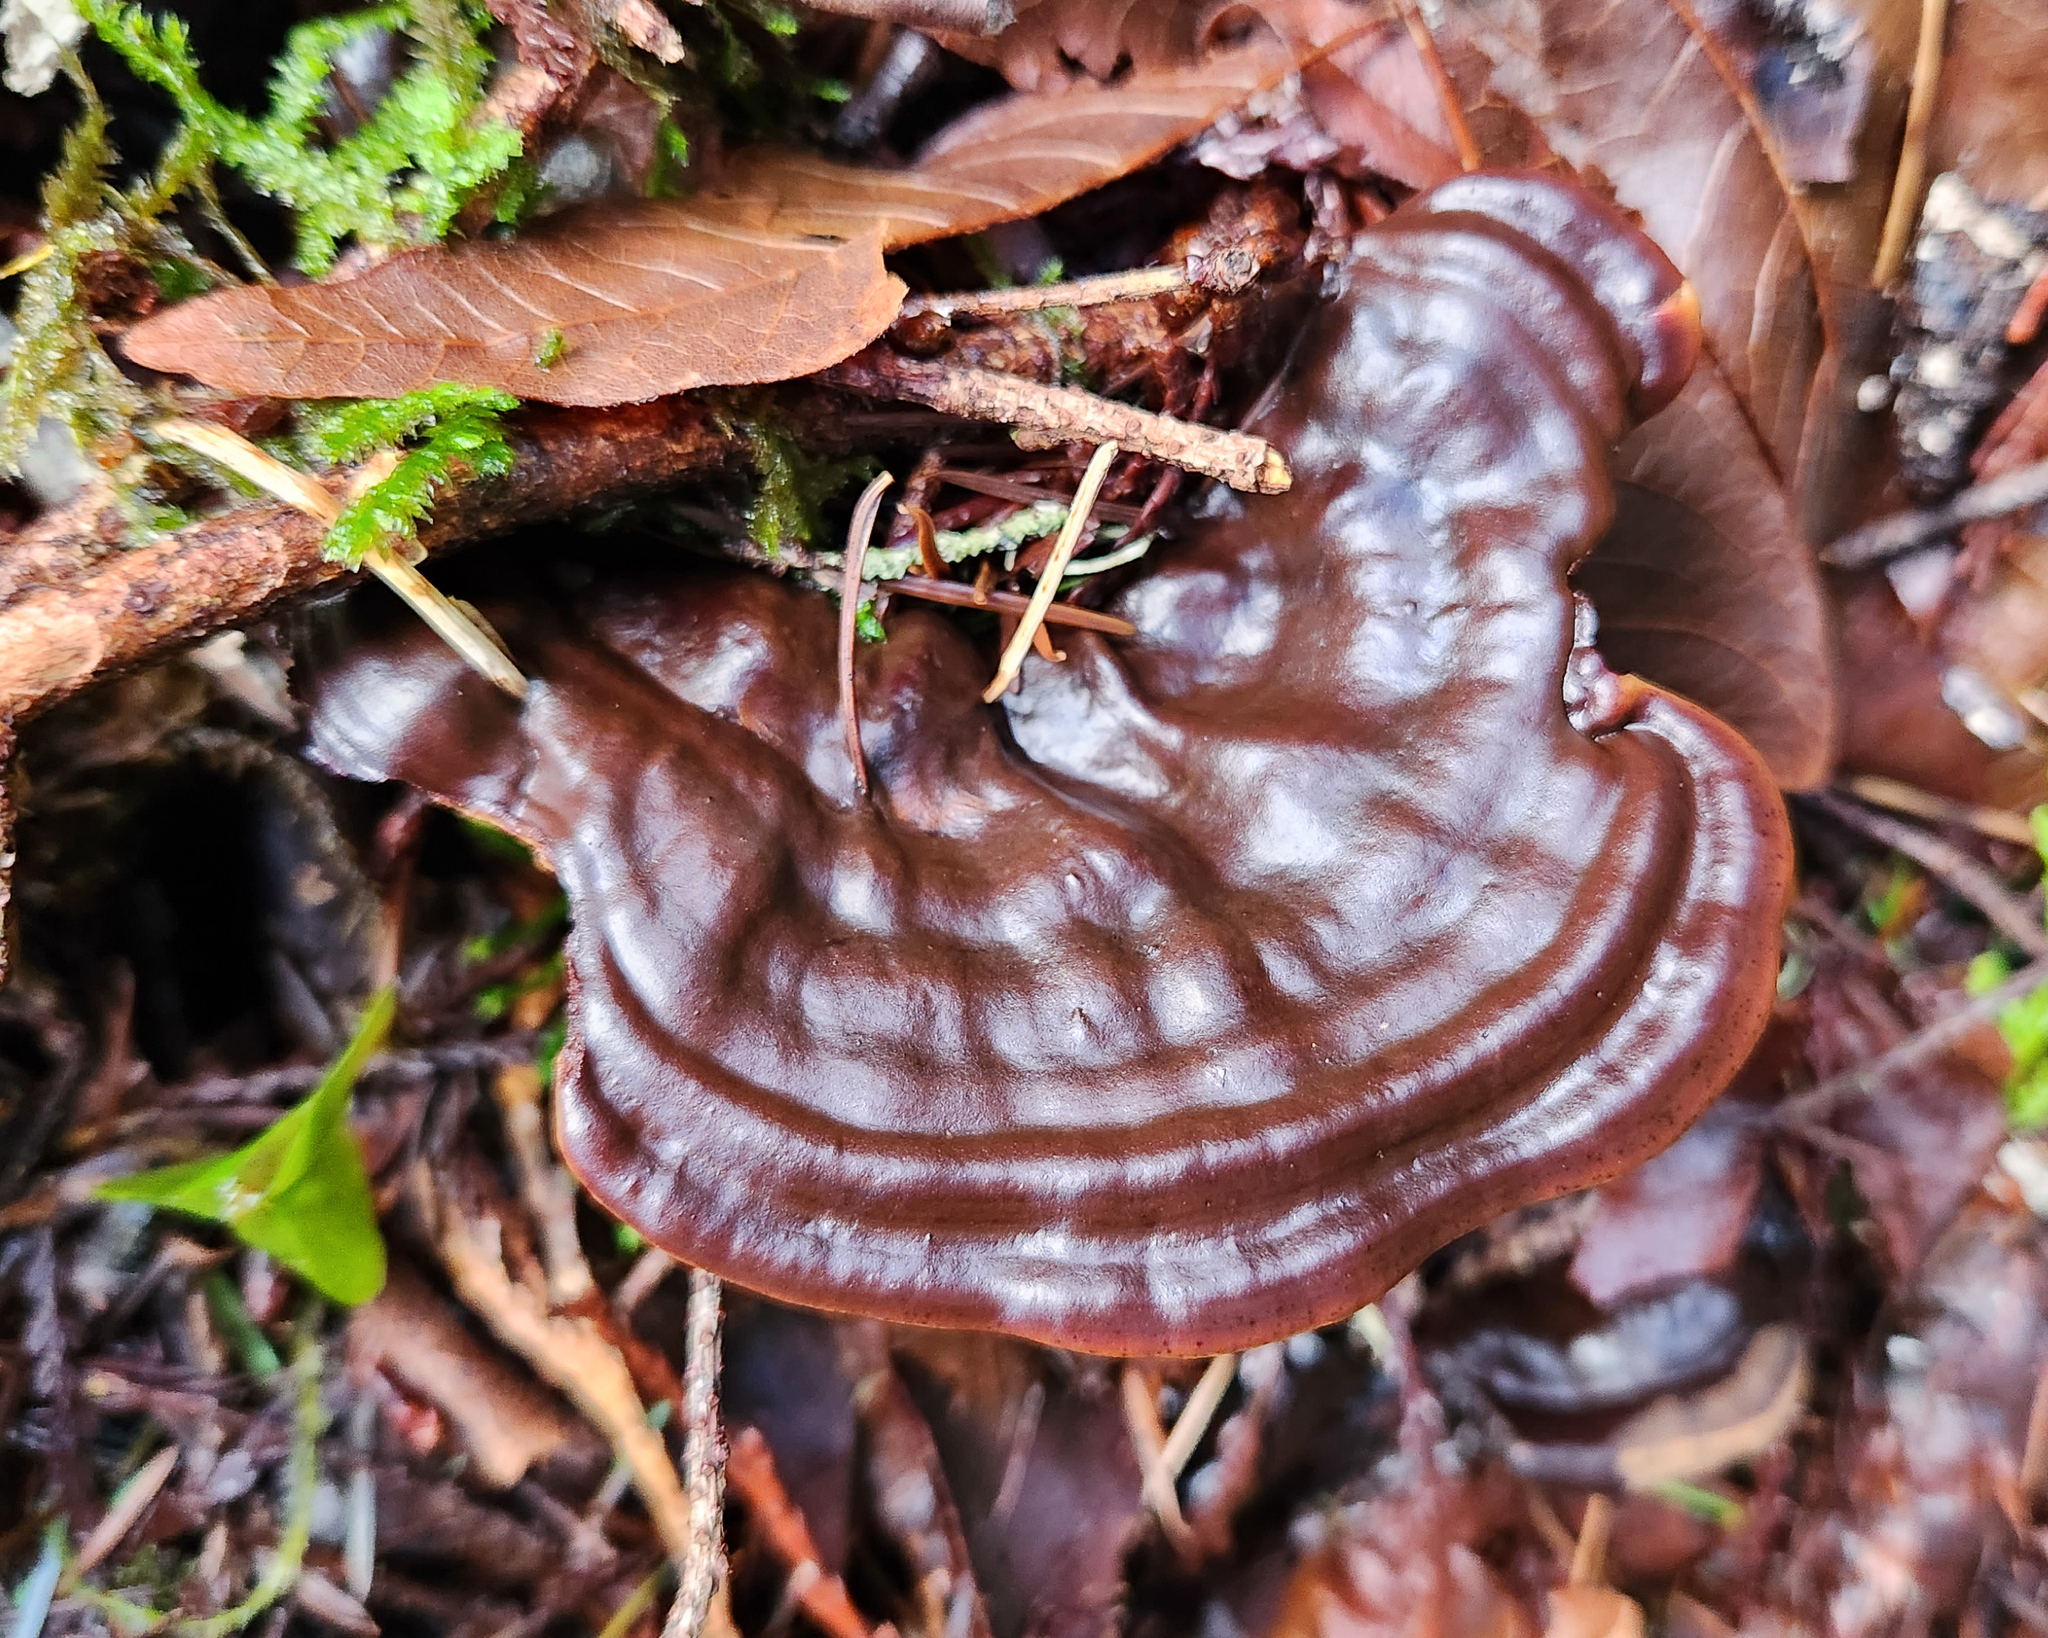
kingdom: Fungi
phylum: Basidiomycota
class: Agaricomycetes
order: Polyporales
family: Polyporaceae
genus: Ganoderma
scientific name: Ganoderma oregonense
